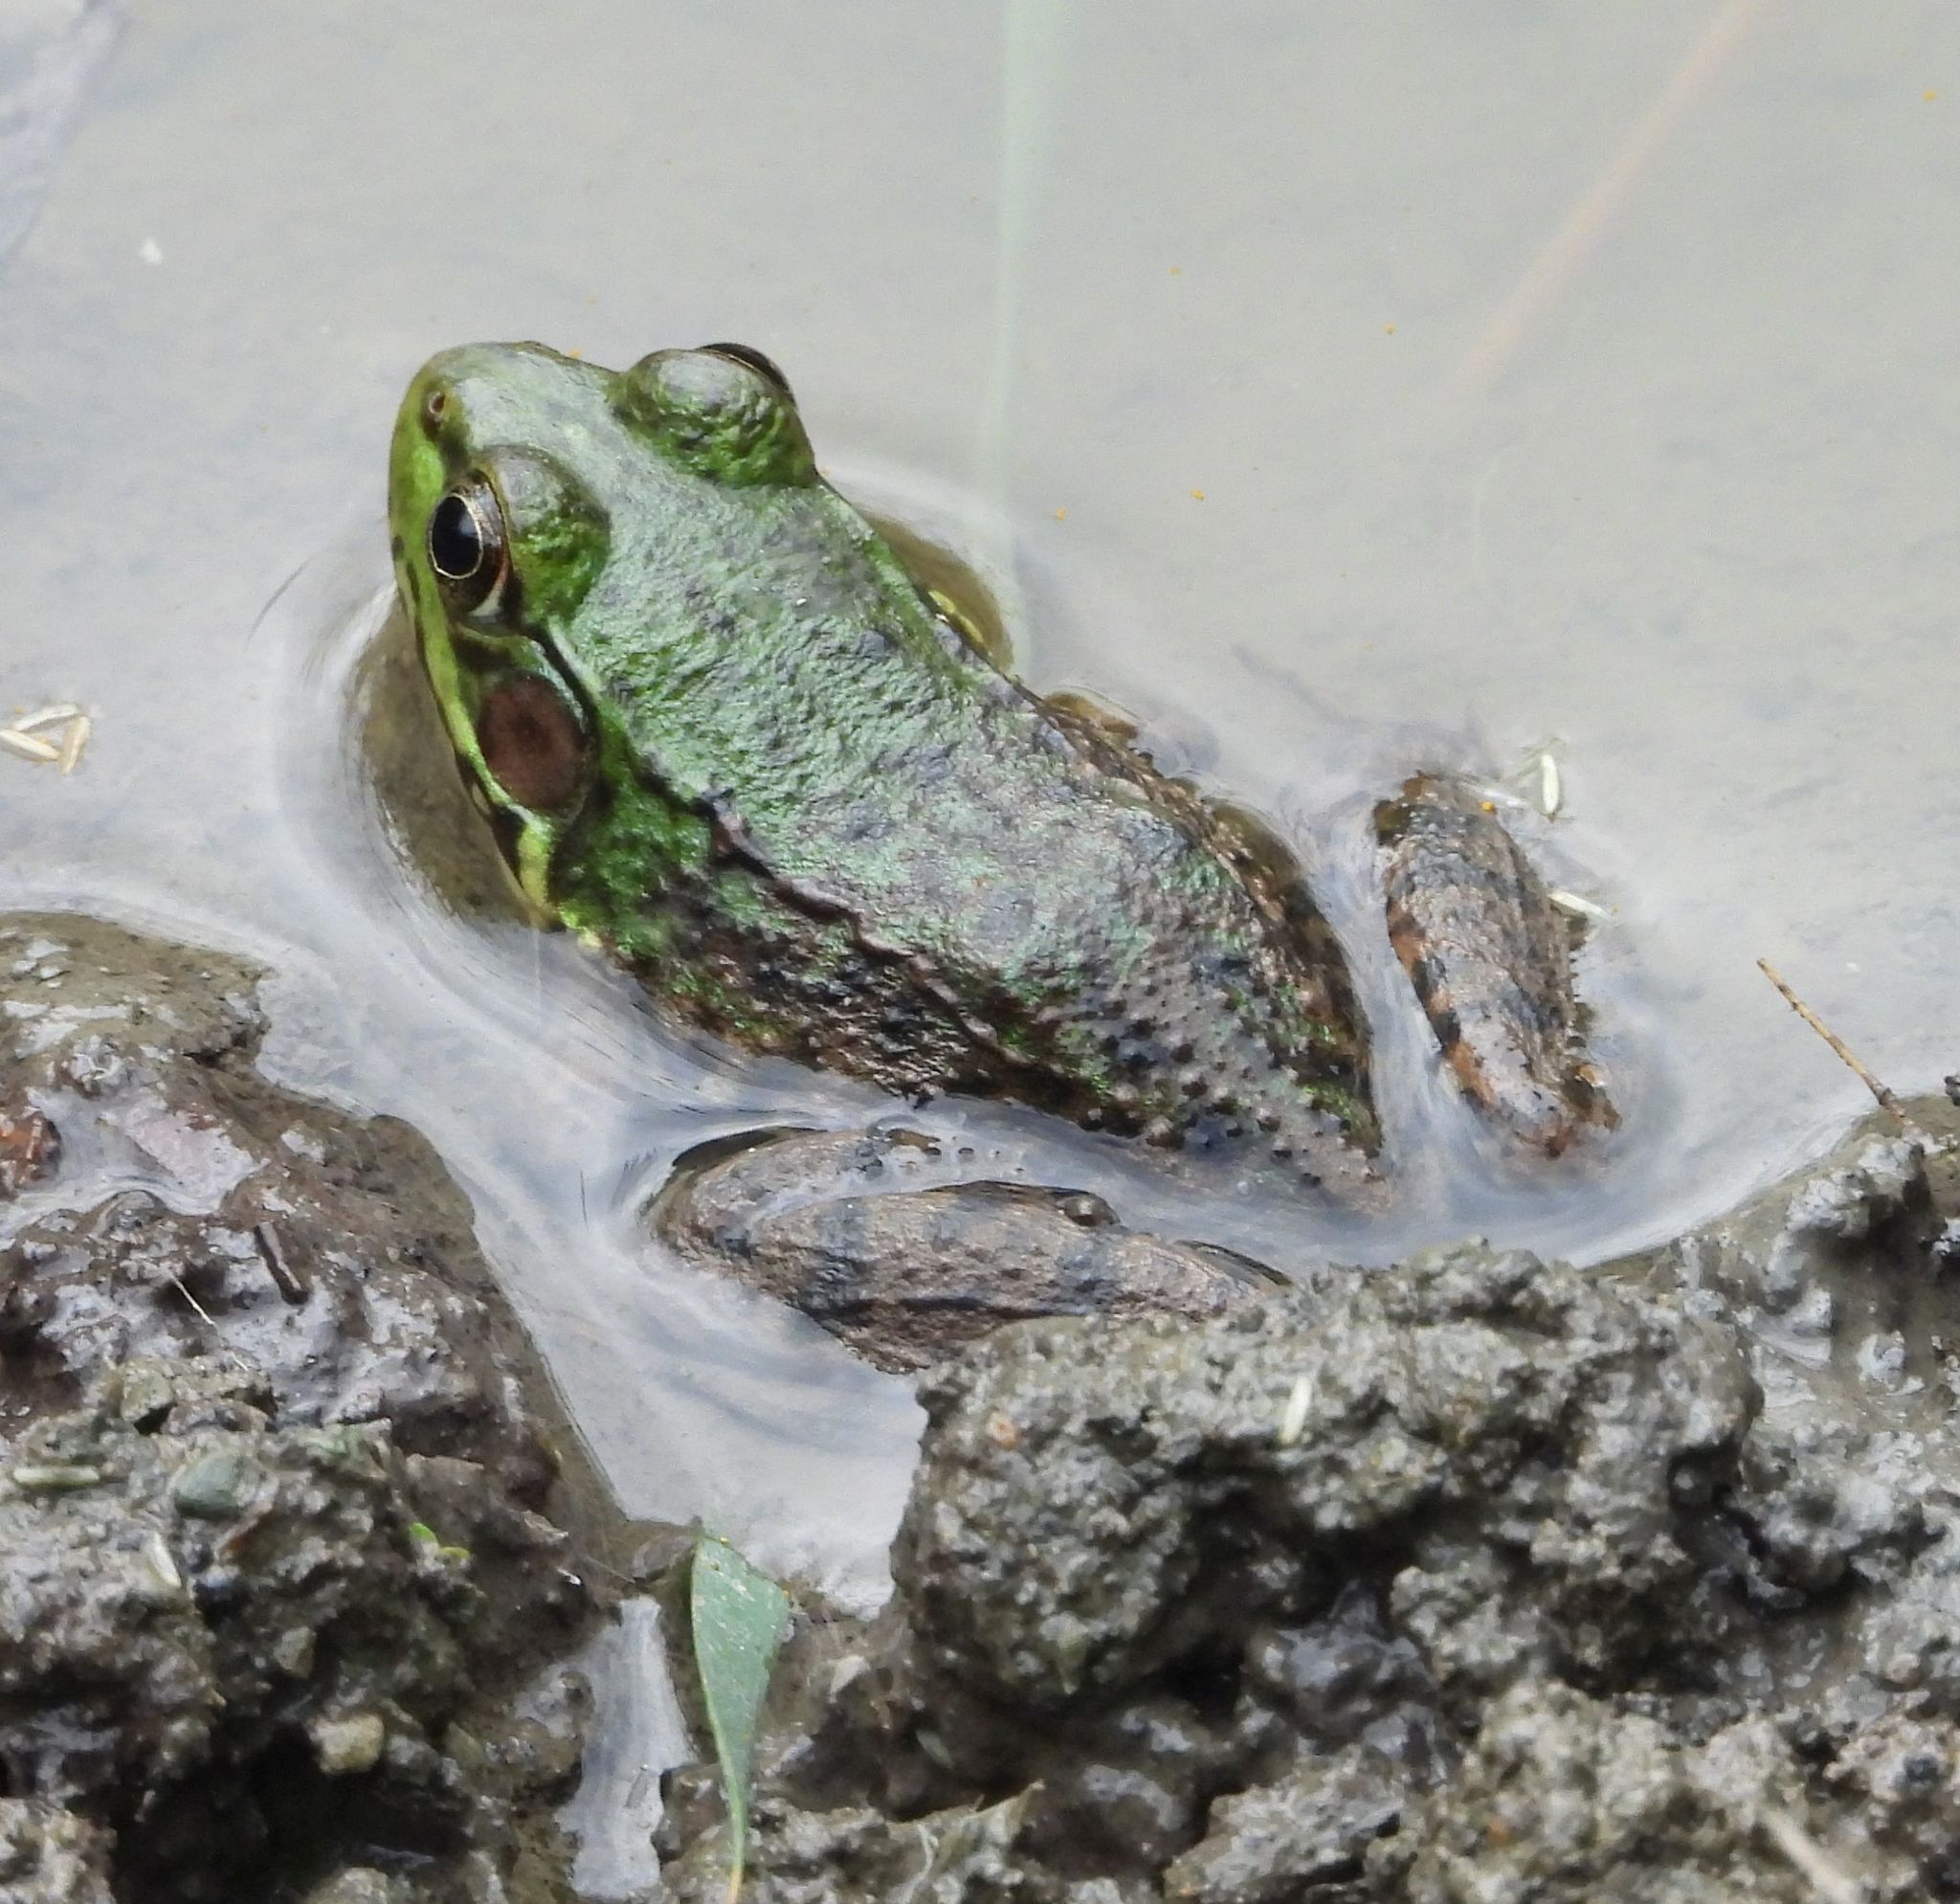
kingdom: Animalia
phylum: Chordata
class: Amphibia
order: Anura
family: Ranidae
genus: Lithobates
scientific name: Lithobates clamitans
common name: Green frog
